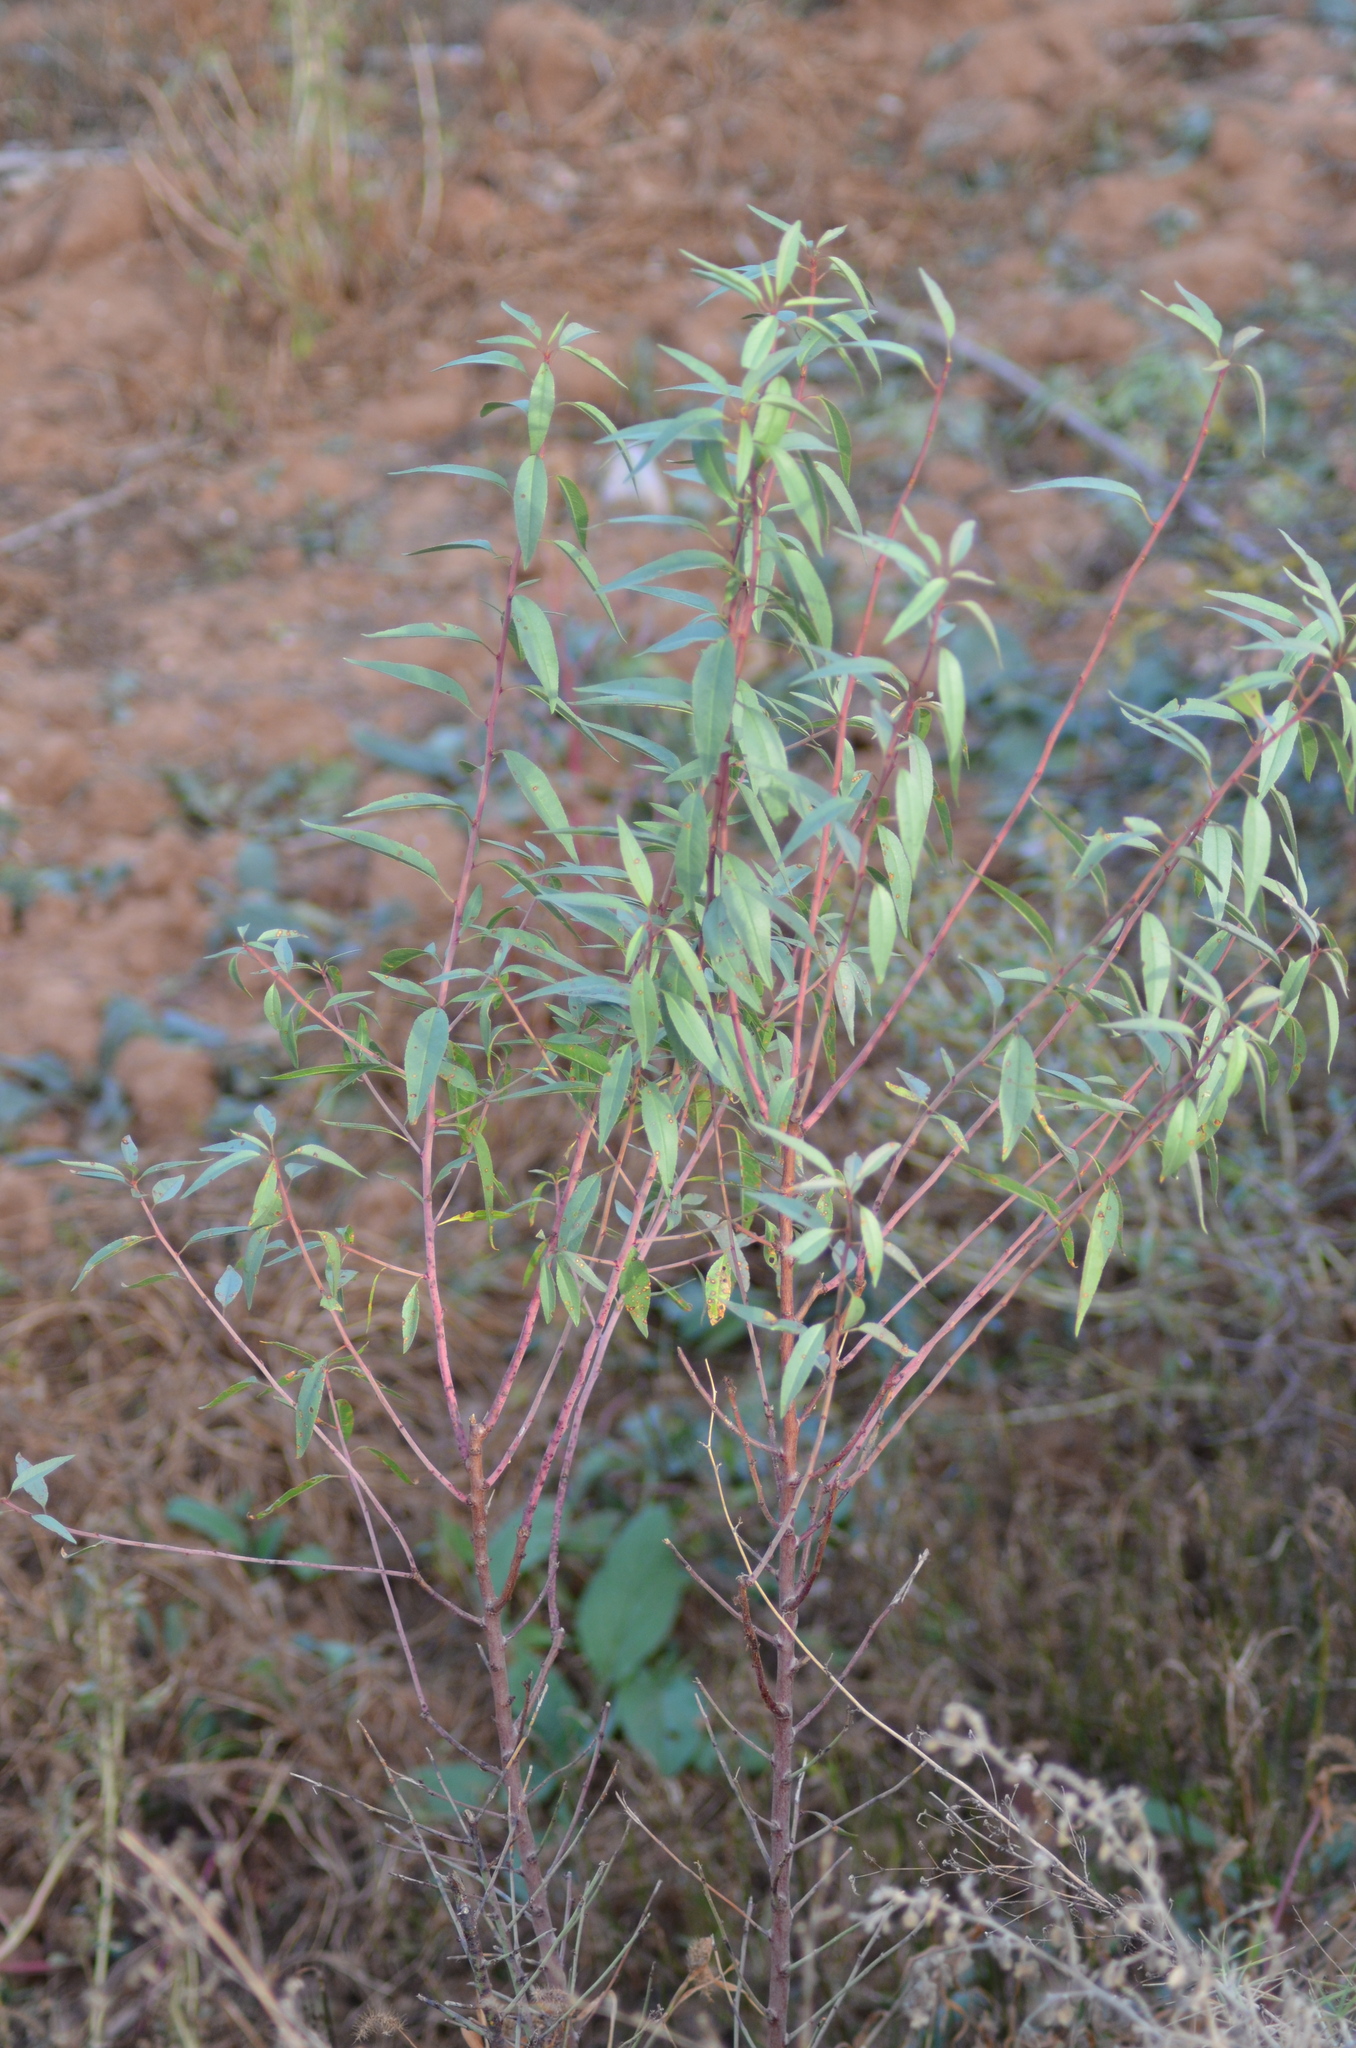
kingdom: Plantae
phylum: Tracheophyta
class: Magnoliopsida
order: Rosales
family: Rosaceae
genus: Prunus
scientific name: Prunus amygdalus
